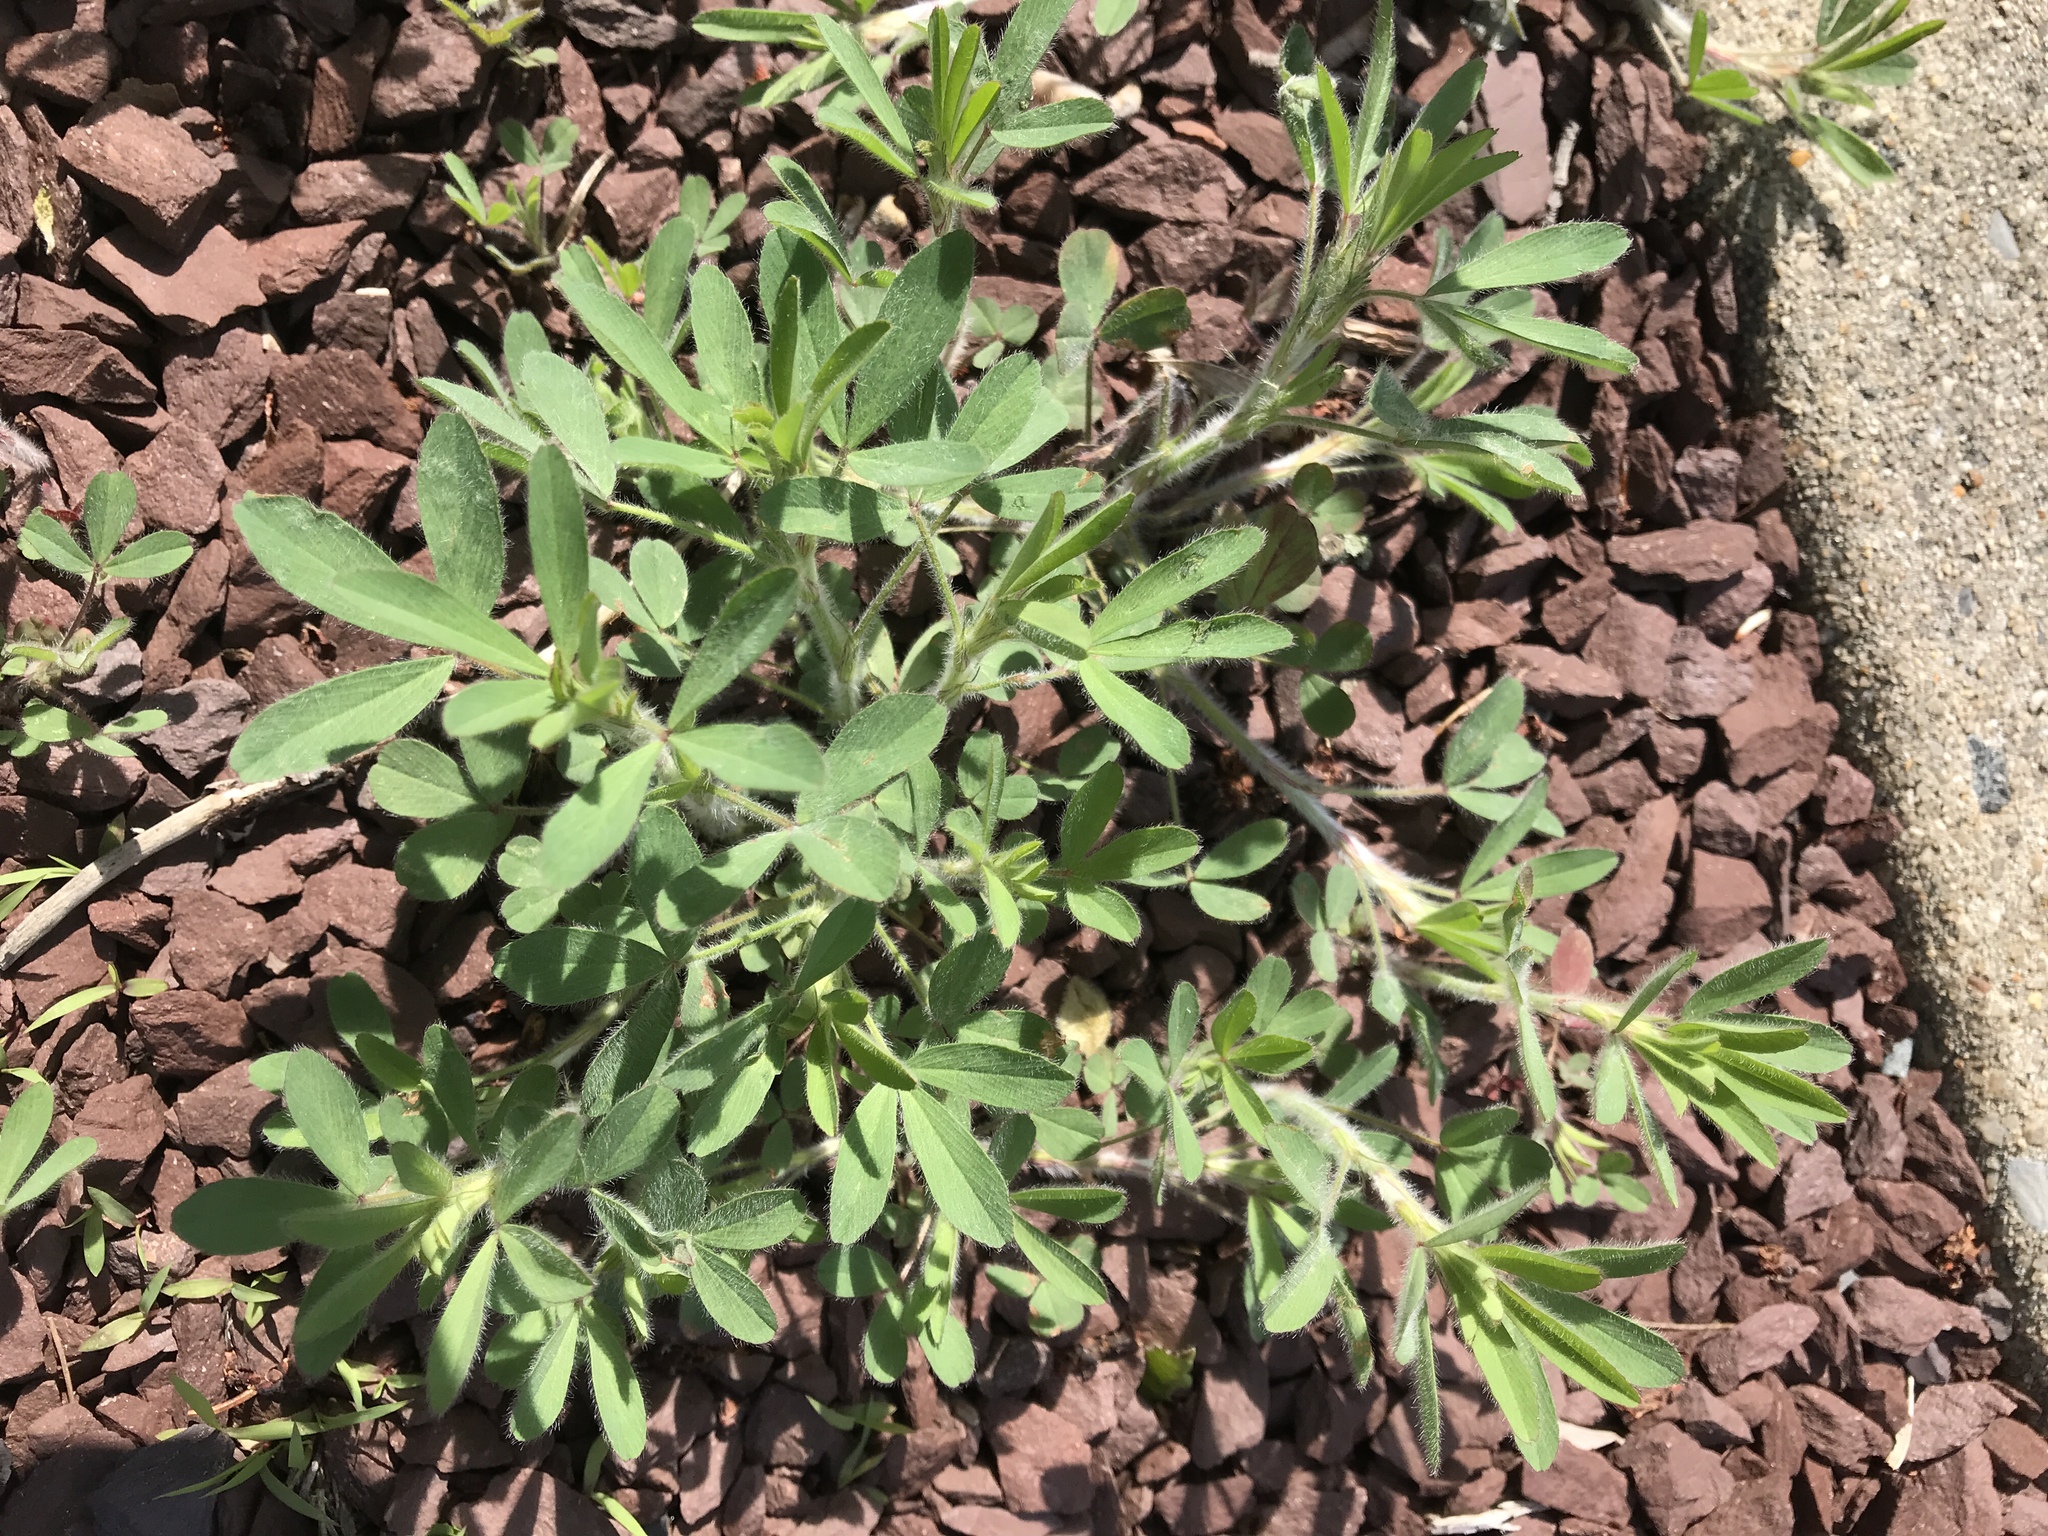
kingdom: Plantae
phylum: Tracheophyta
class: Magnoliopsida
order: Fabales
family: Fabaceae
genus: Trifolium
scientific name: Trifolium arvense
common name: Hare's-foot clover
